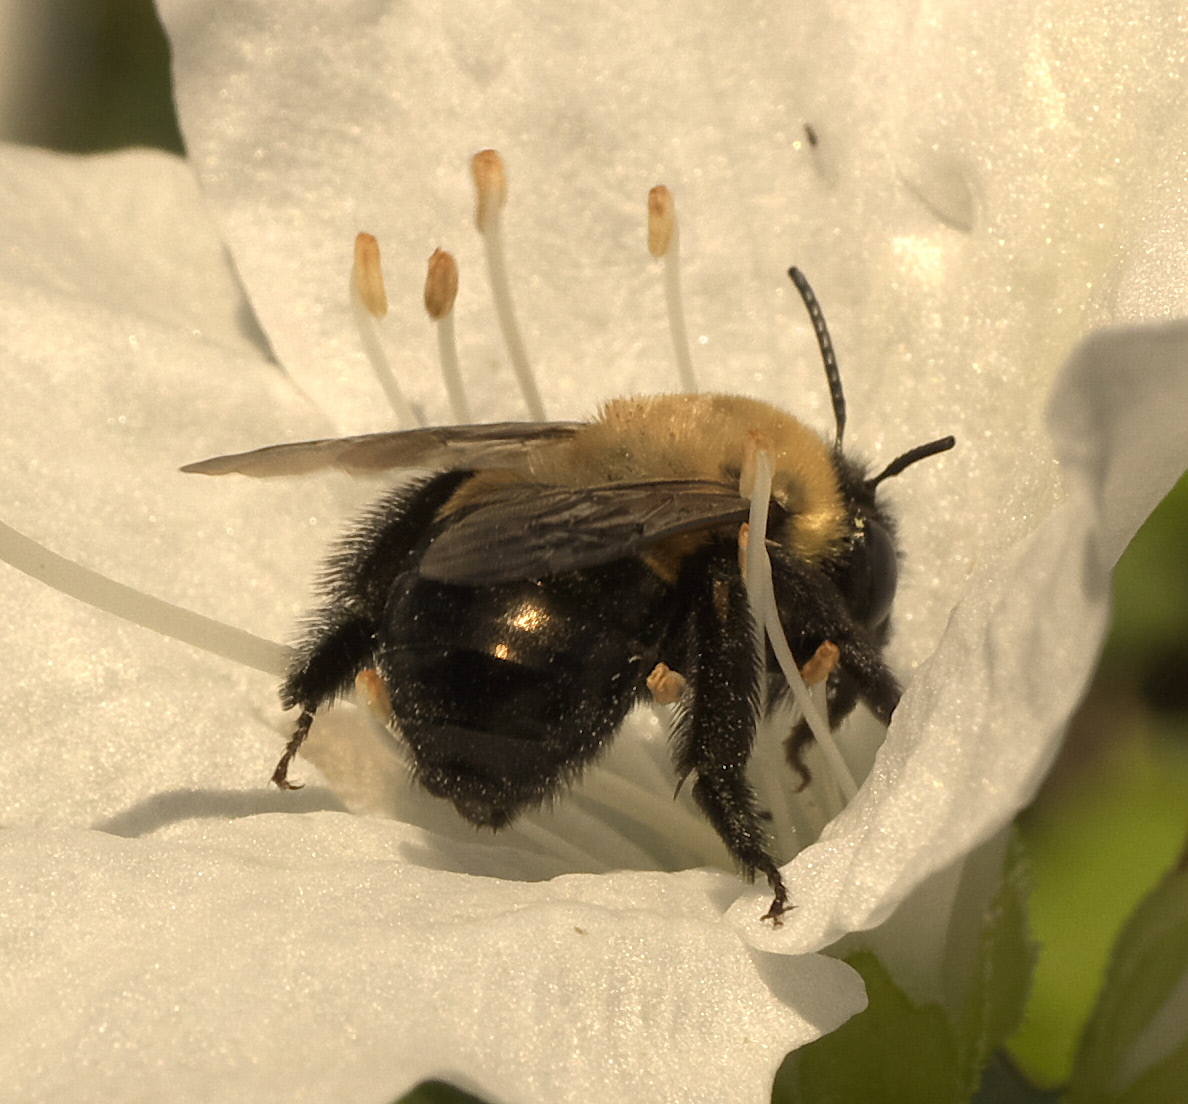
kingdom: Animalia
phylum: Arthropoda
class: Insecta
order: Hymenoptera
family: Apidae
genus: Habropoda
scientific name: Habropoda laboriosa
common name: Southeastern blueberry bee
